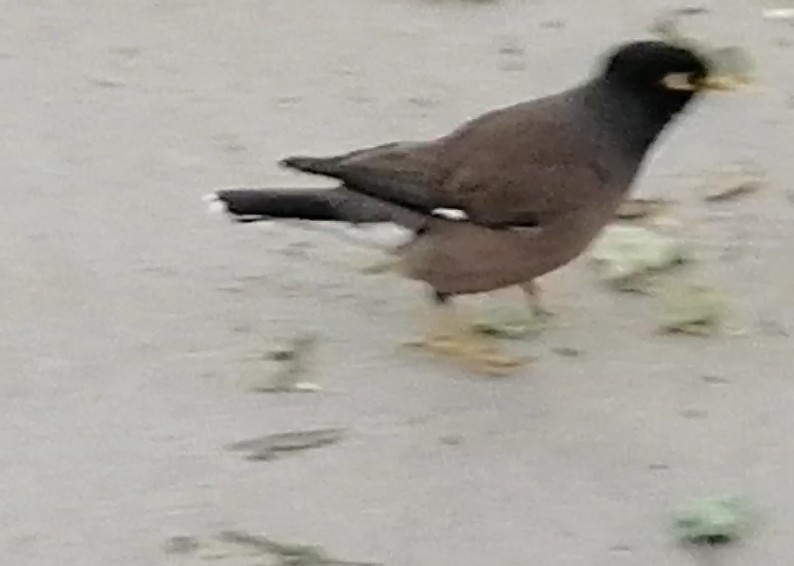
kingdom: Animalia
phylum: Chordata
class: Aves
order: Passeriformes
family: Sturnidae
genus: Acridotheres
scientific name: Acridotheres tristis
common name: Common myna
